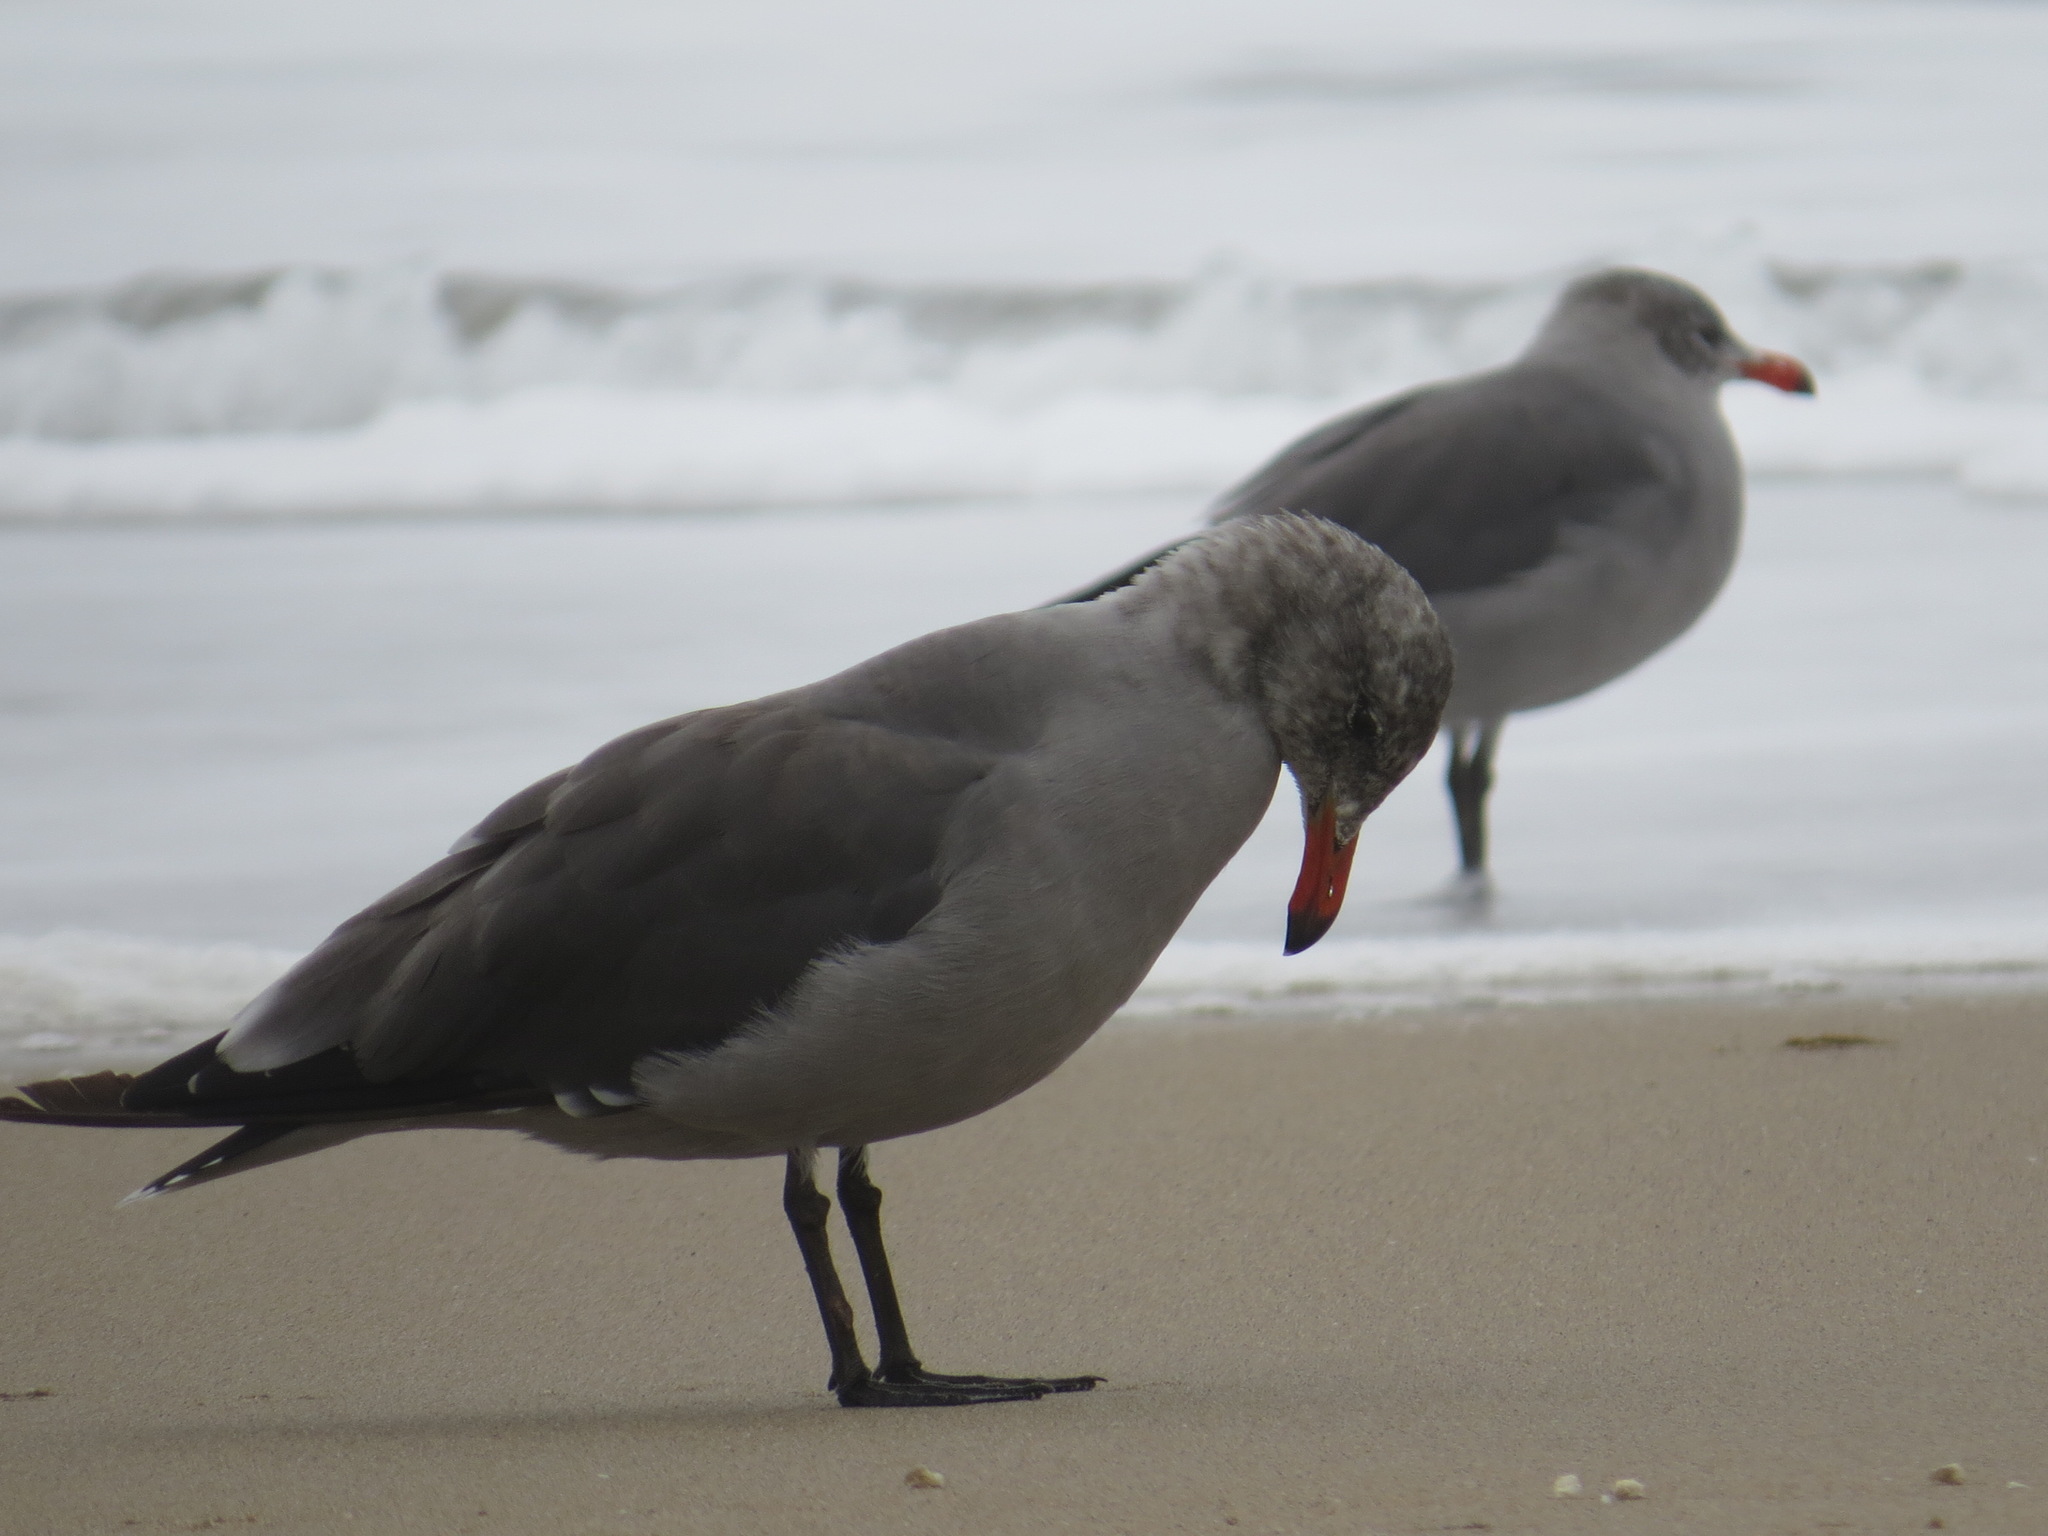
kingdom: Animalia
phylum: Chordata
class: Aves
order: Charadriiformes
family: Laridae
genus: Larus
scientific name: Larus heermanni
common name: Heermann's gull
